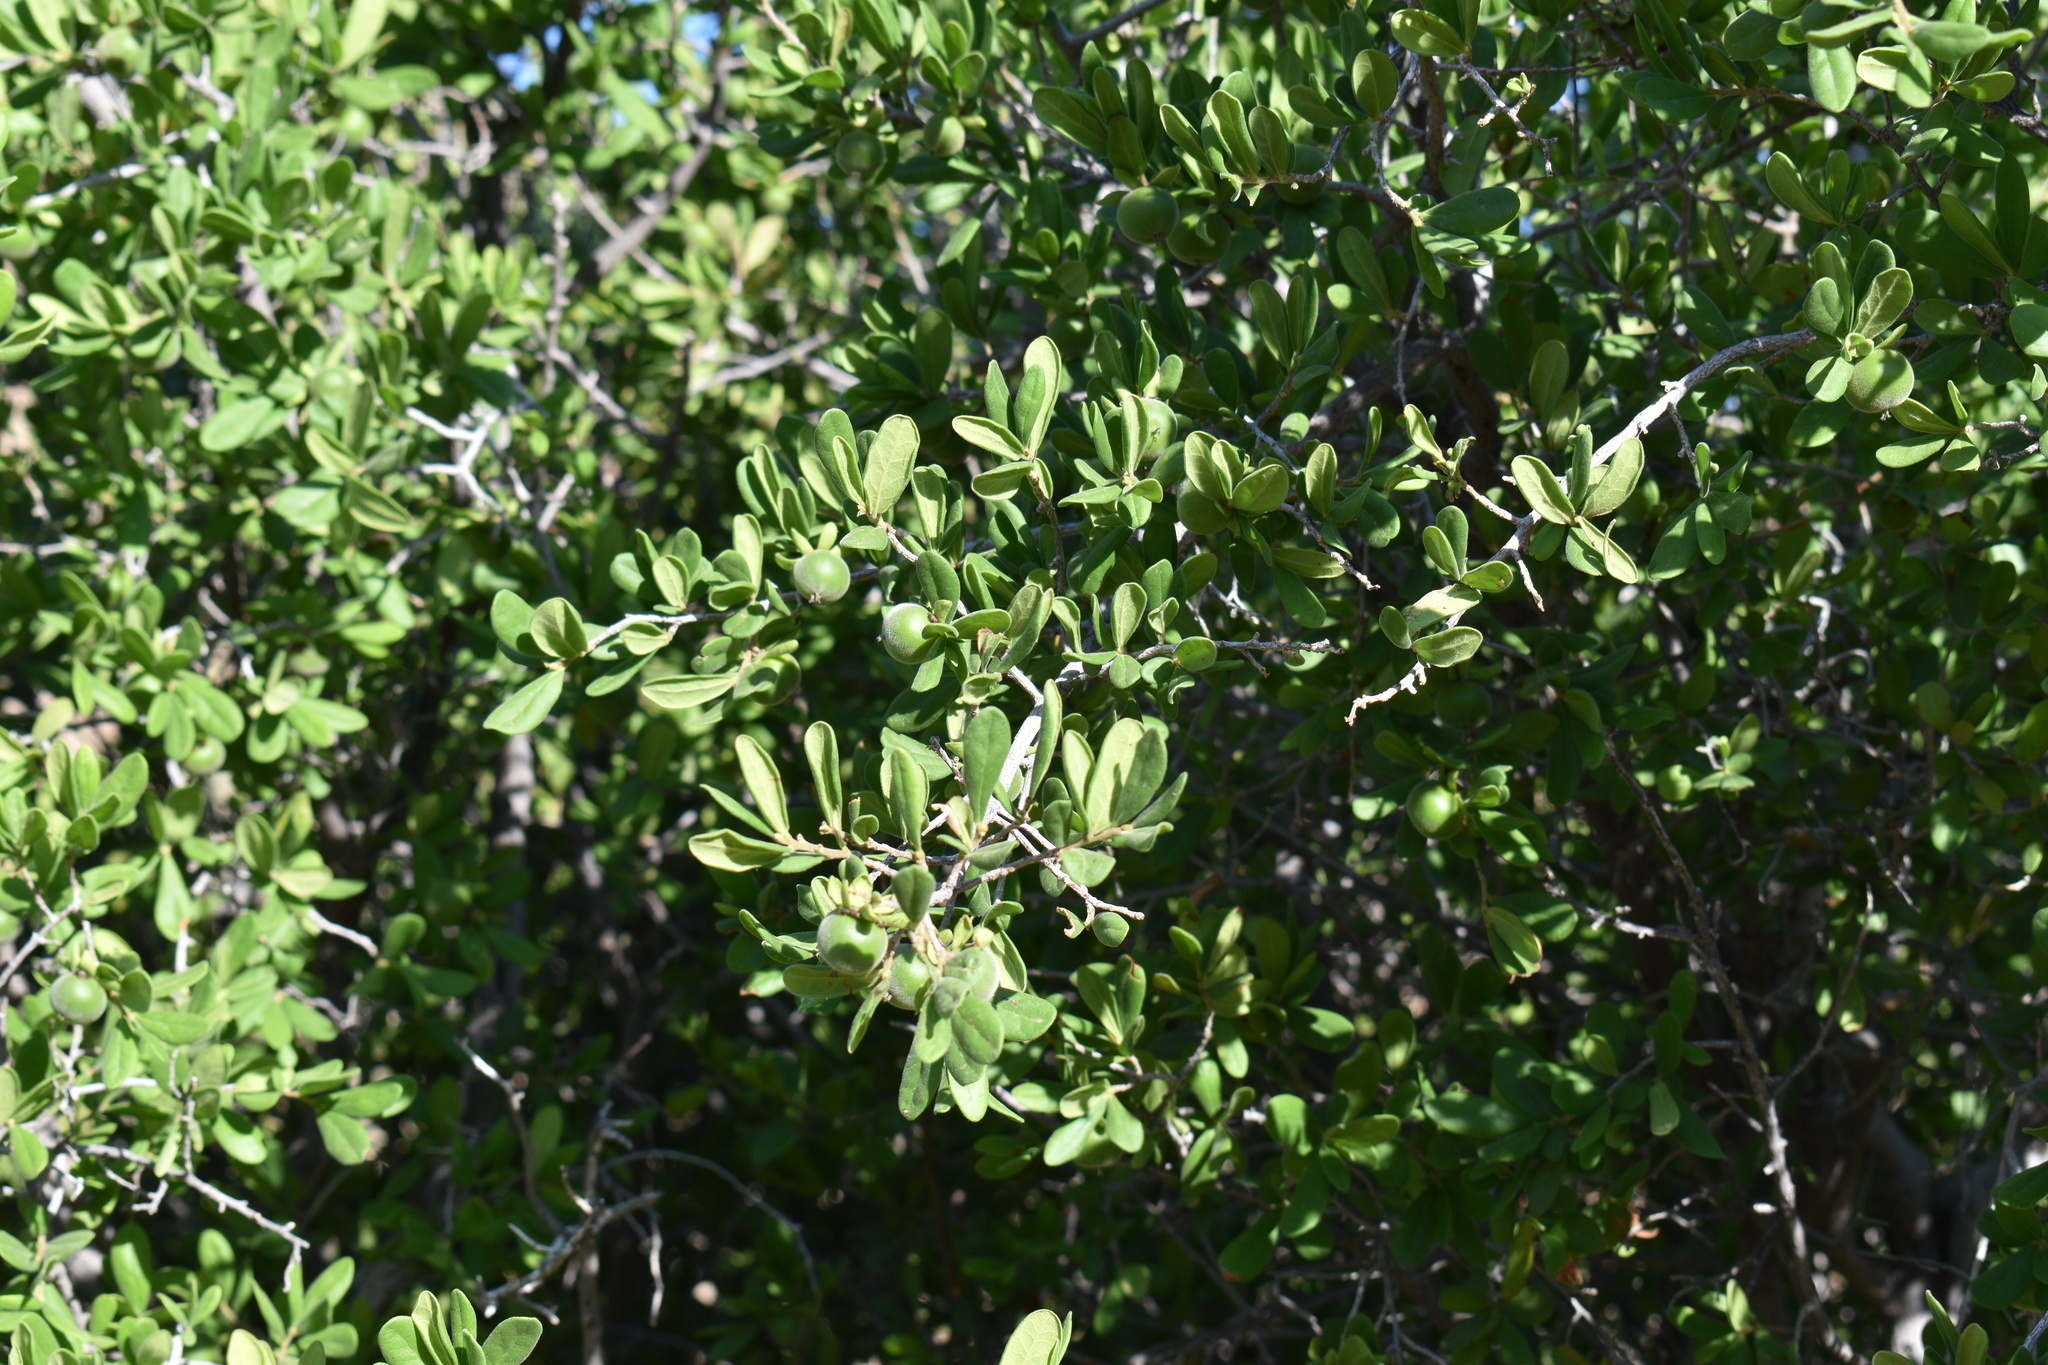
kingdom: Plantae
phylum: Tracheophyta
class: Magnoliopsida
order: Ericales
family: Ebenaceae
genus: Diospyros
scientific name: Diospyros texana
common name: Texas persimmon
